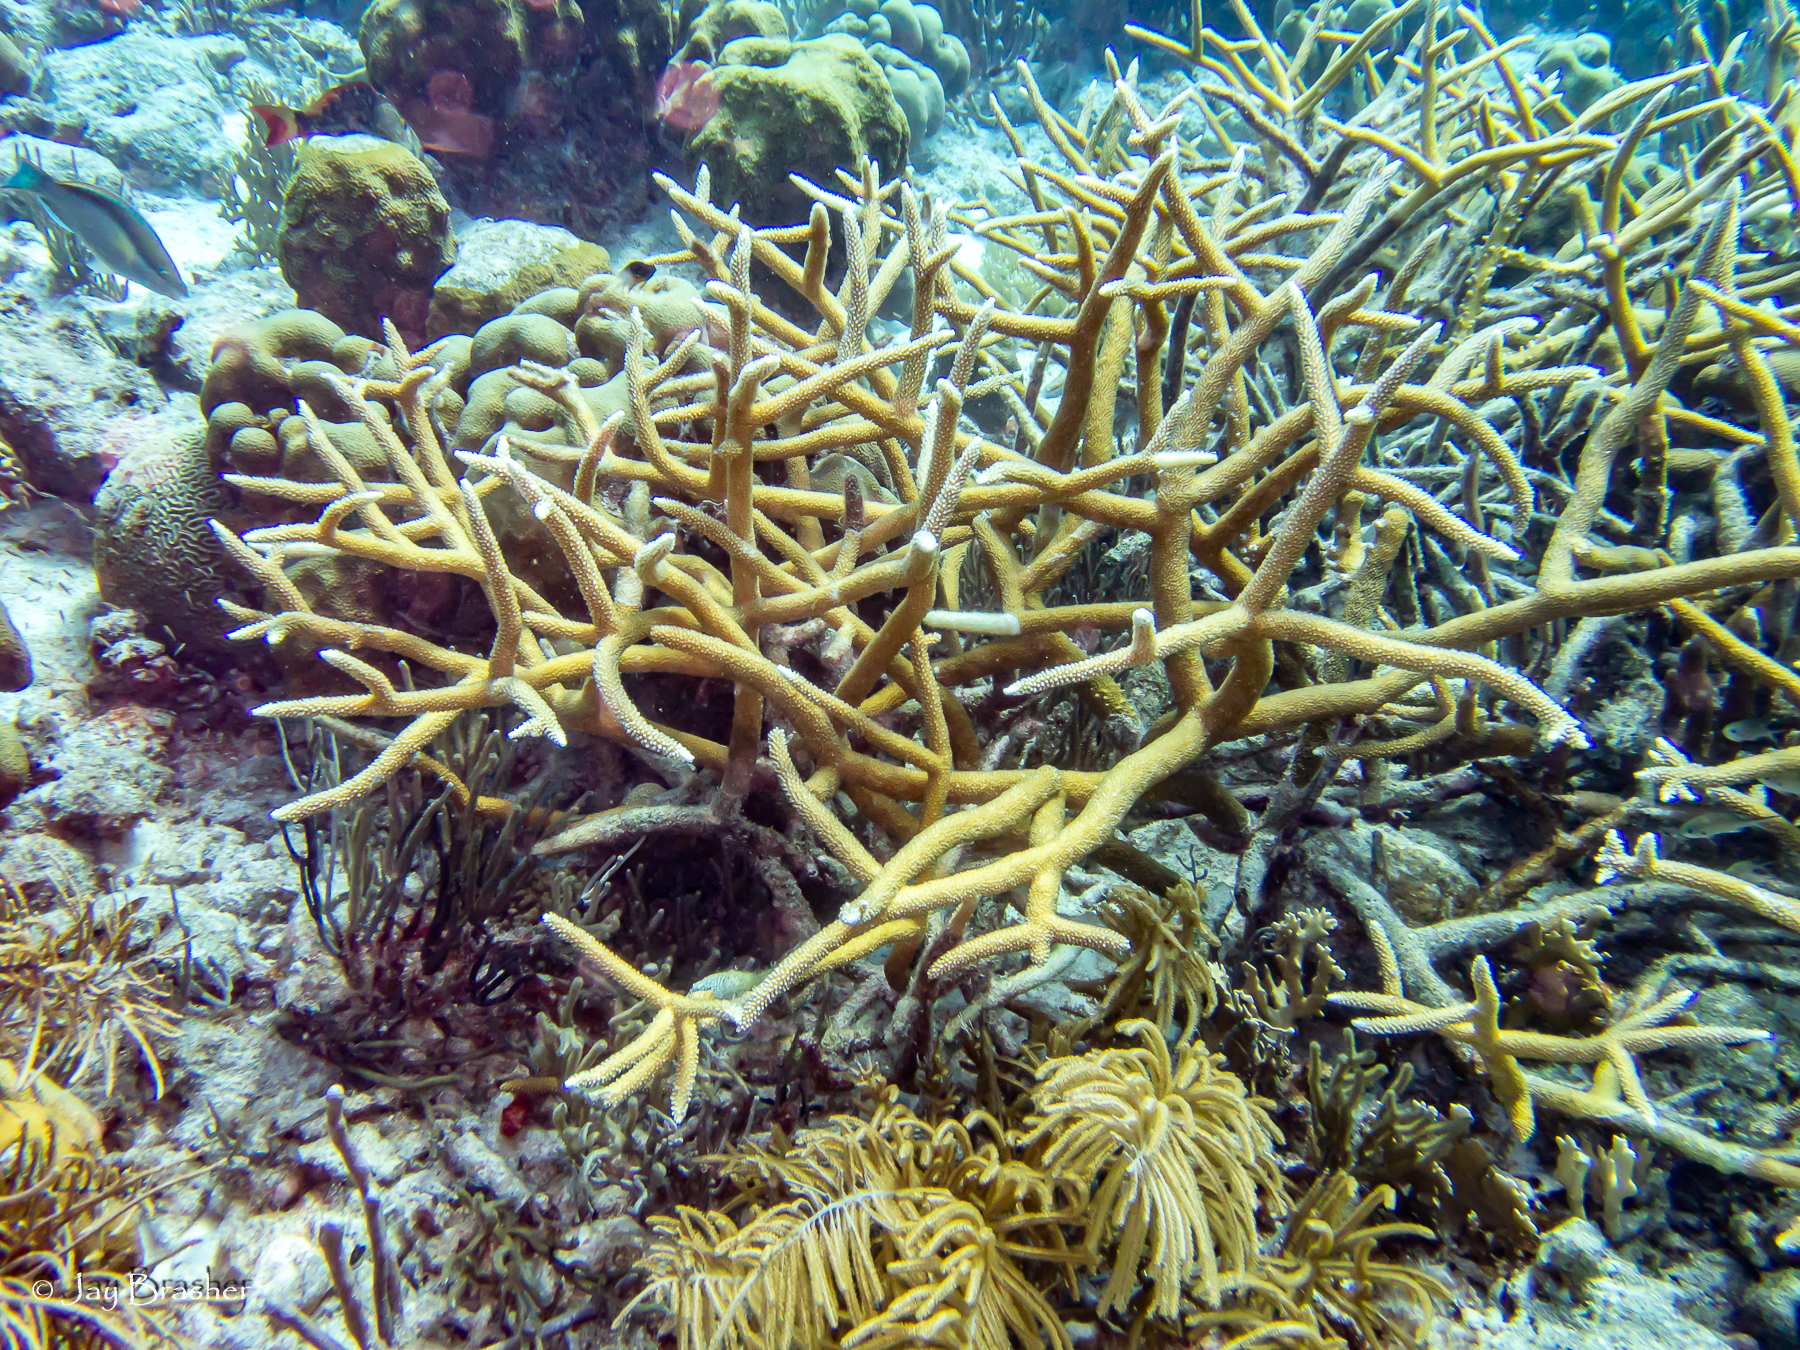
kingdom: Animalia
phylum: Cnidaria
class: Anthozoa
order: Scleractinia
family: Acroporidae
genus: Acropora
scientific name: Acropora cervicornis
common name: Staghorn coral
